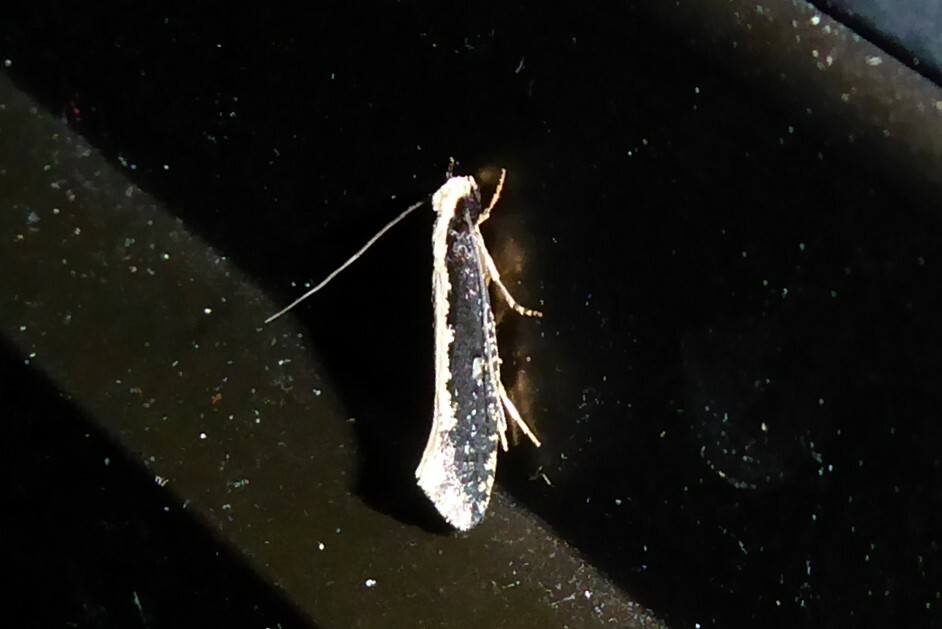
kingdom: Animalia
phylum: Arthropoda
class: Insecta
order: Lepidoptera
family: Tineidae
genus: Monopis
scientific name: Monopis ethelella
